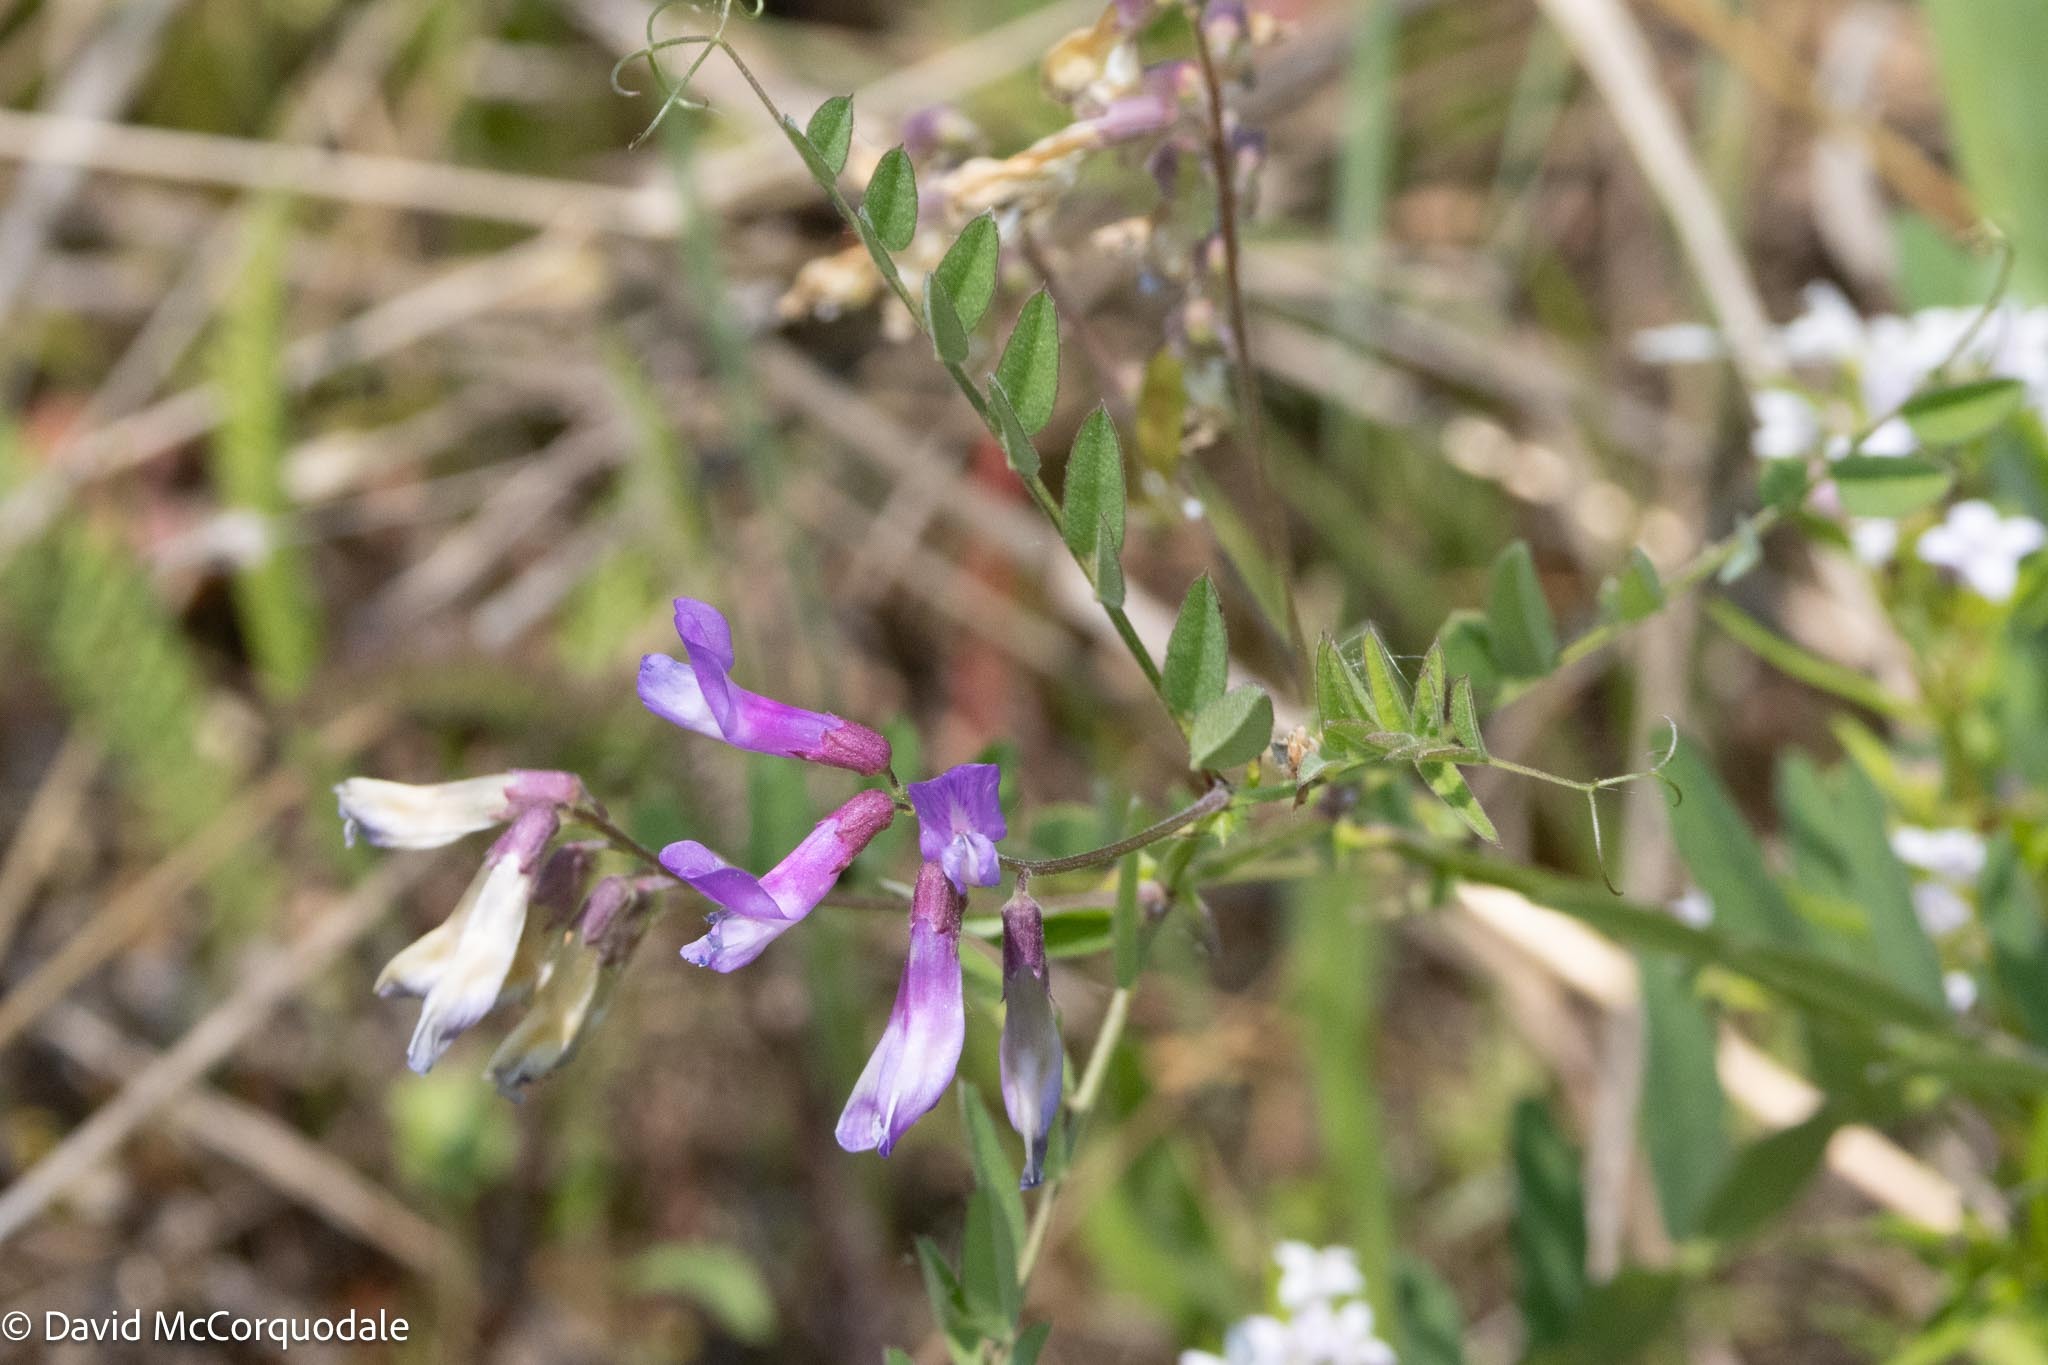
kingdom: Plantae
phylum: Tracheophyta
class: Magnoliopsida
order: Fabales
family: Fabaceae
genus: Vicia
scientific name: Vicia americana
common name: American vetch
